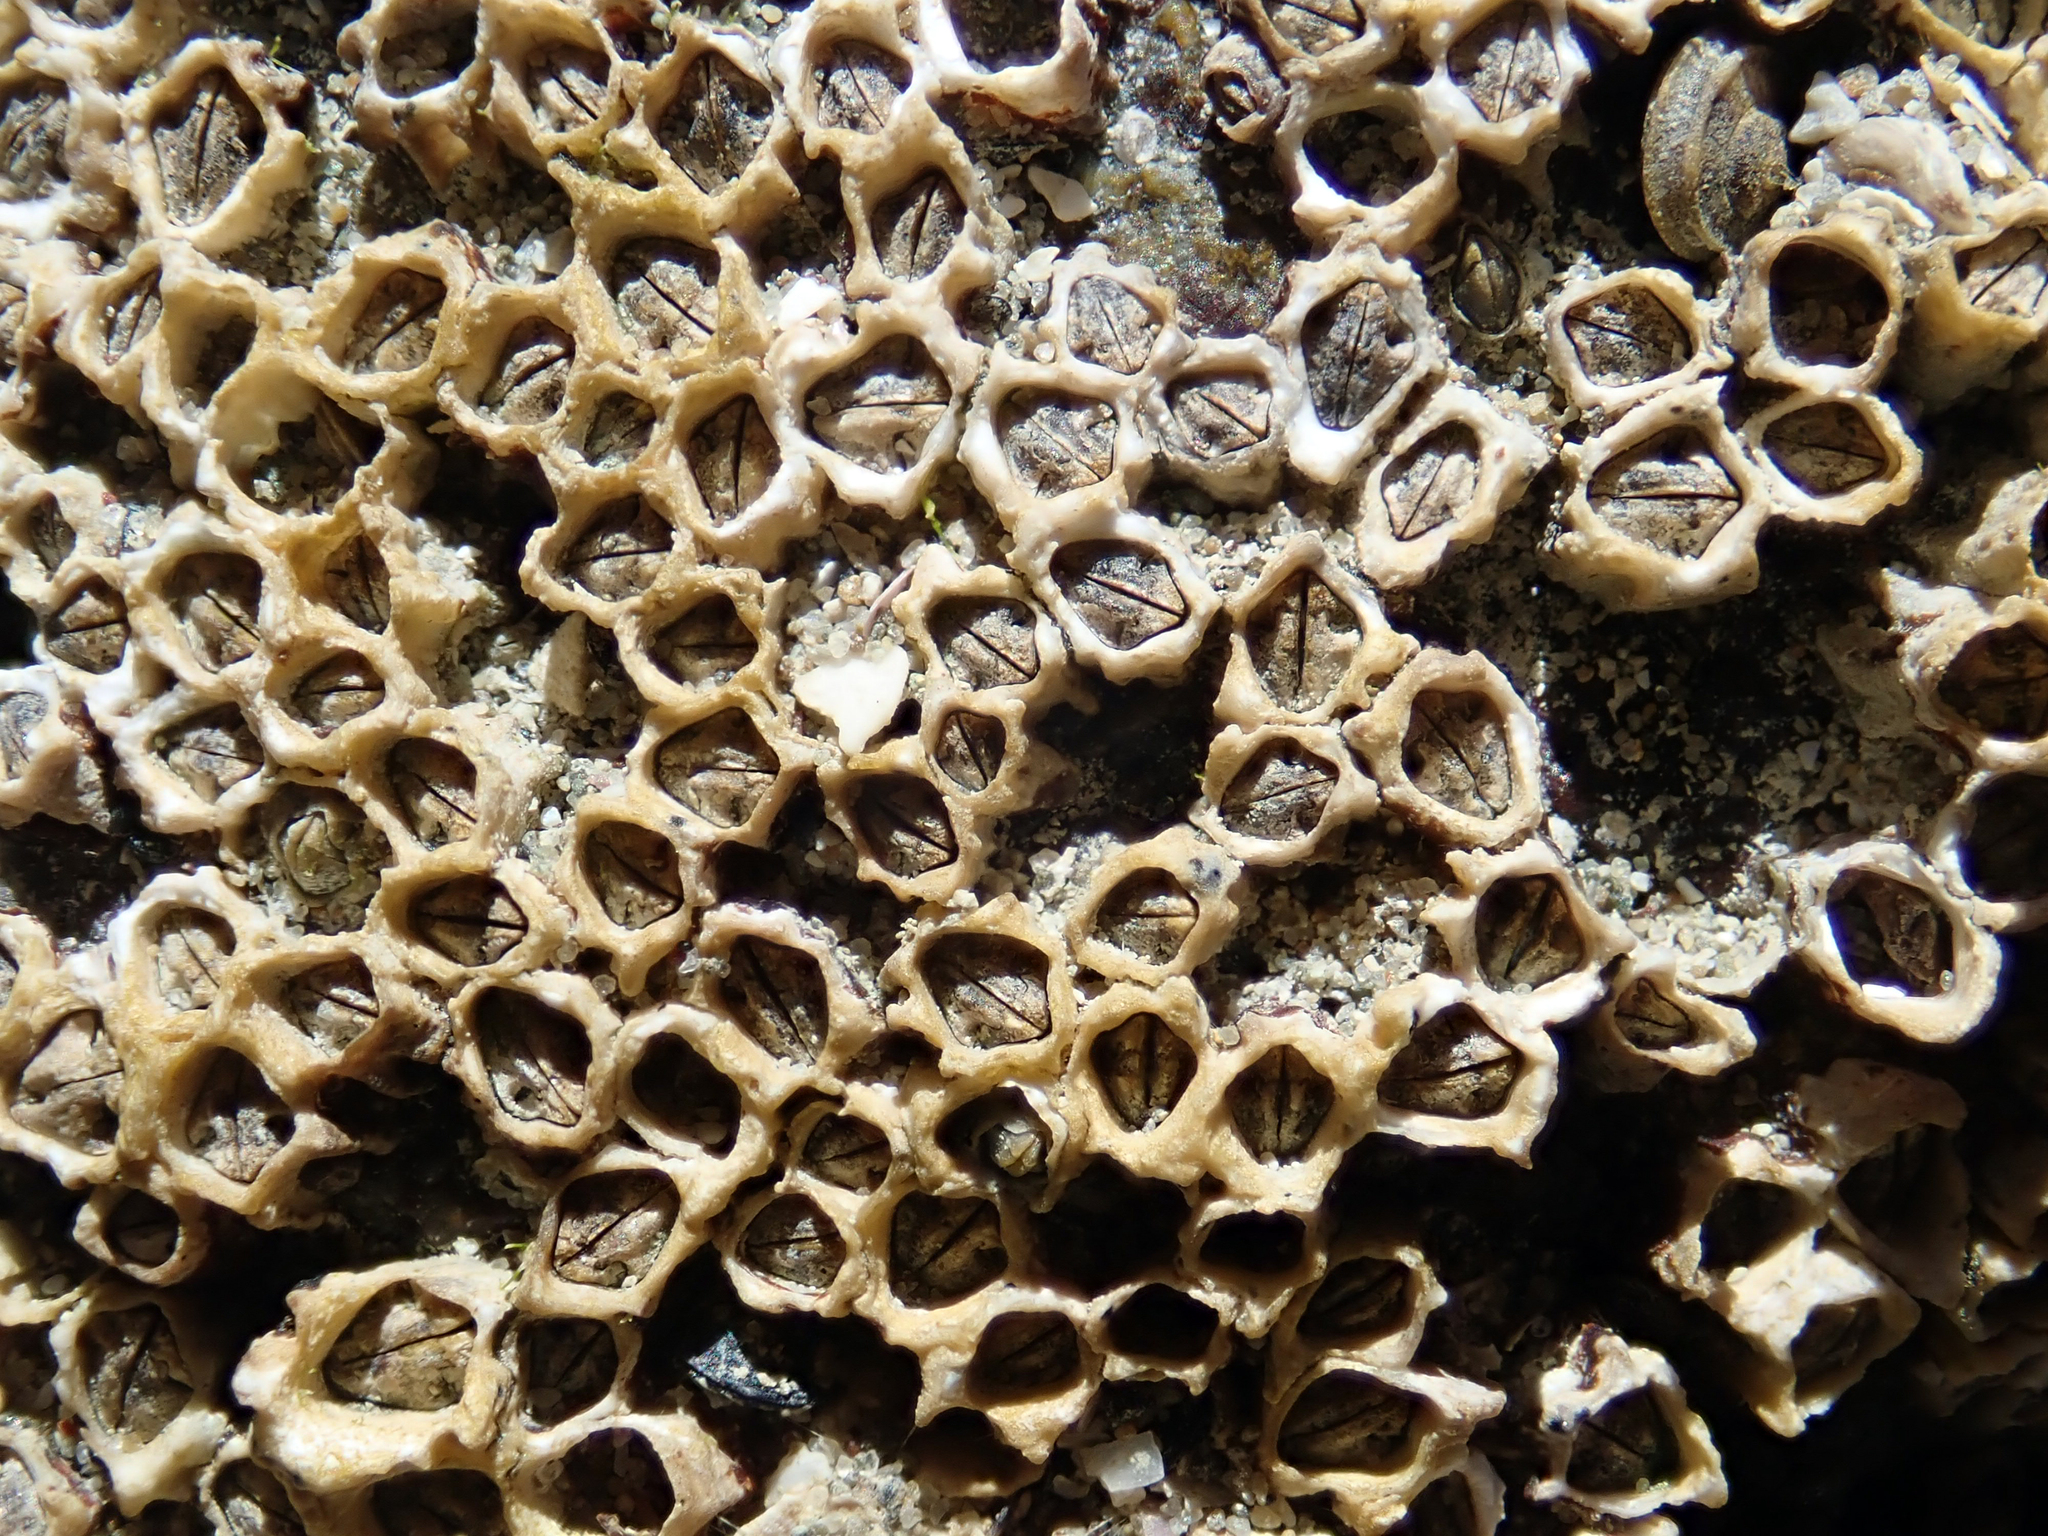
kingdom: Animalia
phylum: Arthropoda
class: Maxillopoda
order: Sessilia
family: Chthamalidae
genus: Chamaesipho
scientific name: Chamaesipho columna
